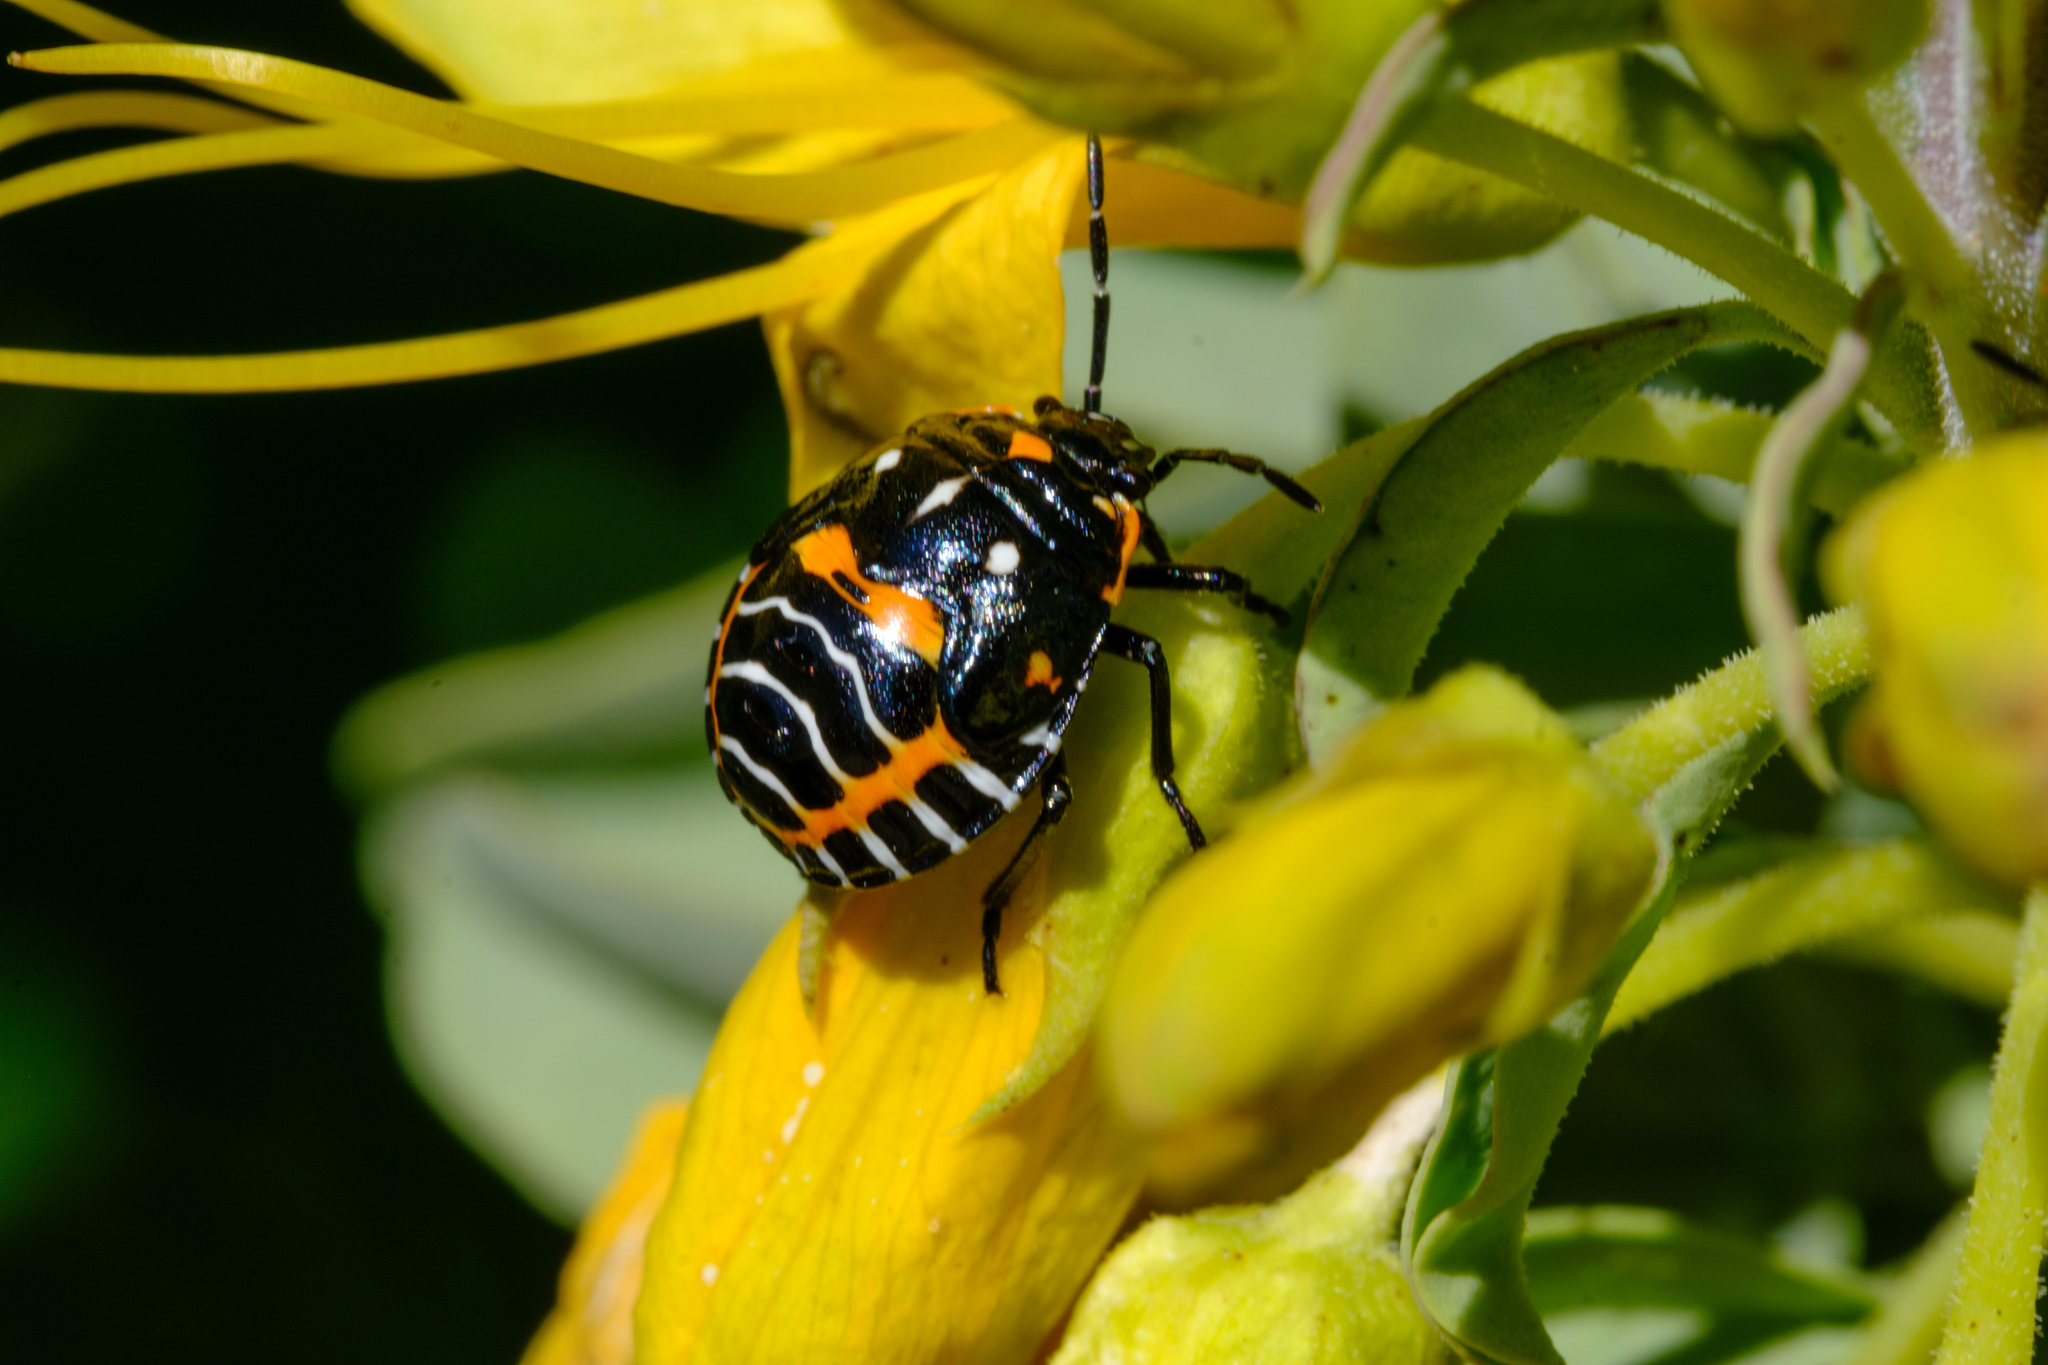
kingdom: Animalia
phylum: Arthropoda
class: Insecta
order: Hemiptera
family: Pentatomidae
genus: Murgantia
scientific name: Murgantia histrionica
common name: Harlequin bug
